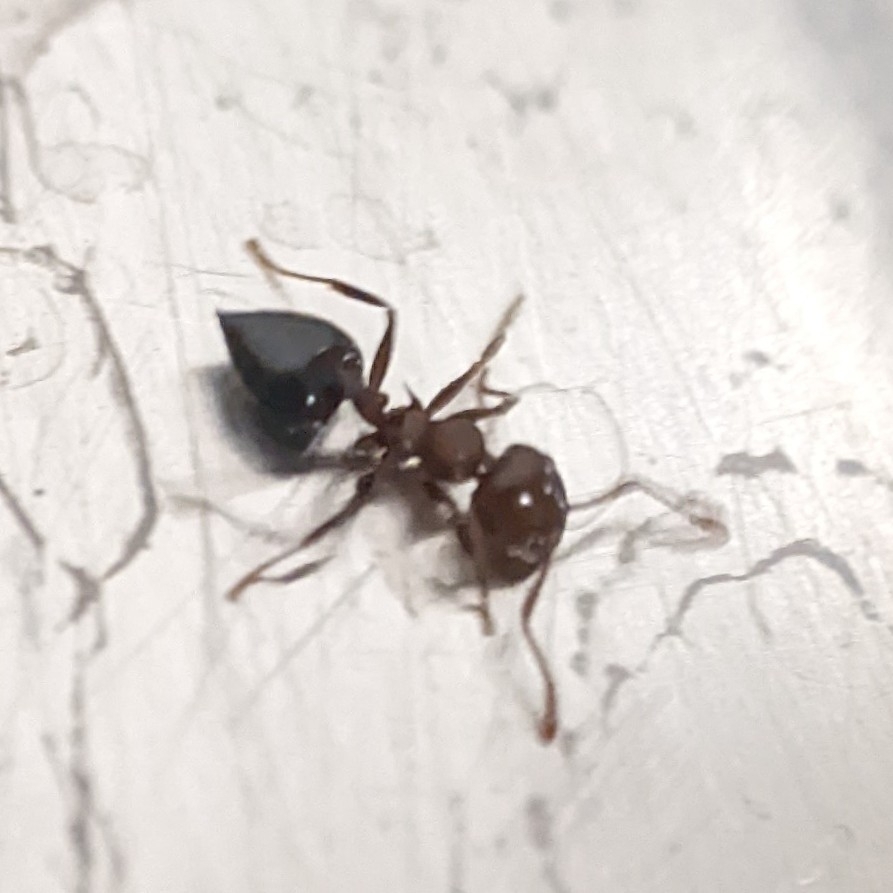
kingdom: Animalia
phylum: Arthropoda
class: Insecta
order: Hymenoptera
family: Formicidae
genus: Crematogaster
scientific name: Crematogaster
